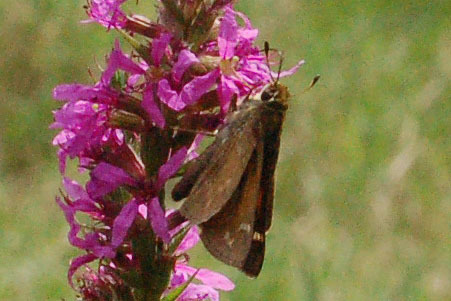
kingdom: Animalia
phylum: Arthropoda
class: Insecta
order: Lepidoptera
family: Hesperiidae
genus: Atalopedes
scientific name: Atalopedes
